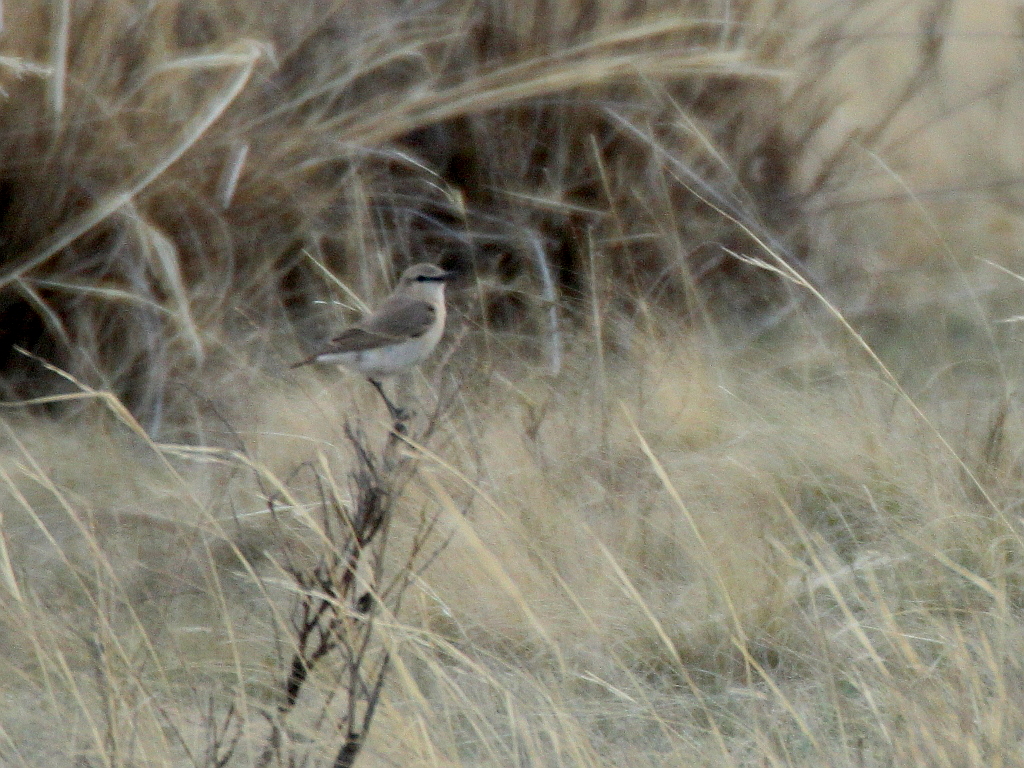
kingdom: Animalia
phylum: Chordata
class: Aves
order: Passeriformes
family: Muscicapidae
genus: Oenanthe
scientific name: Oenanthe isabellina
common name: Isabelline wheatear
